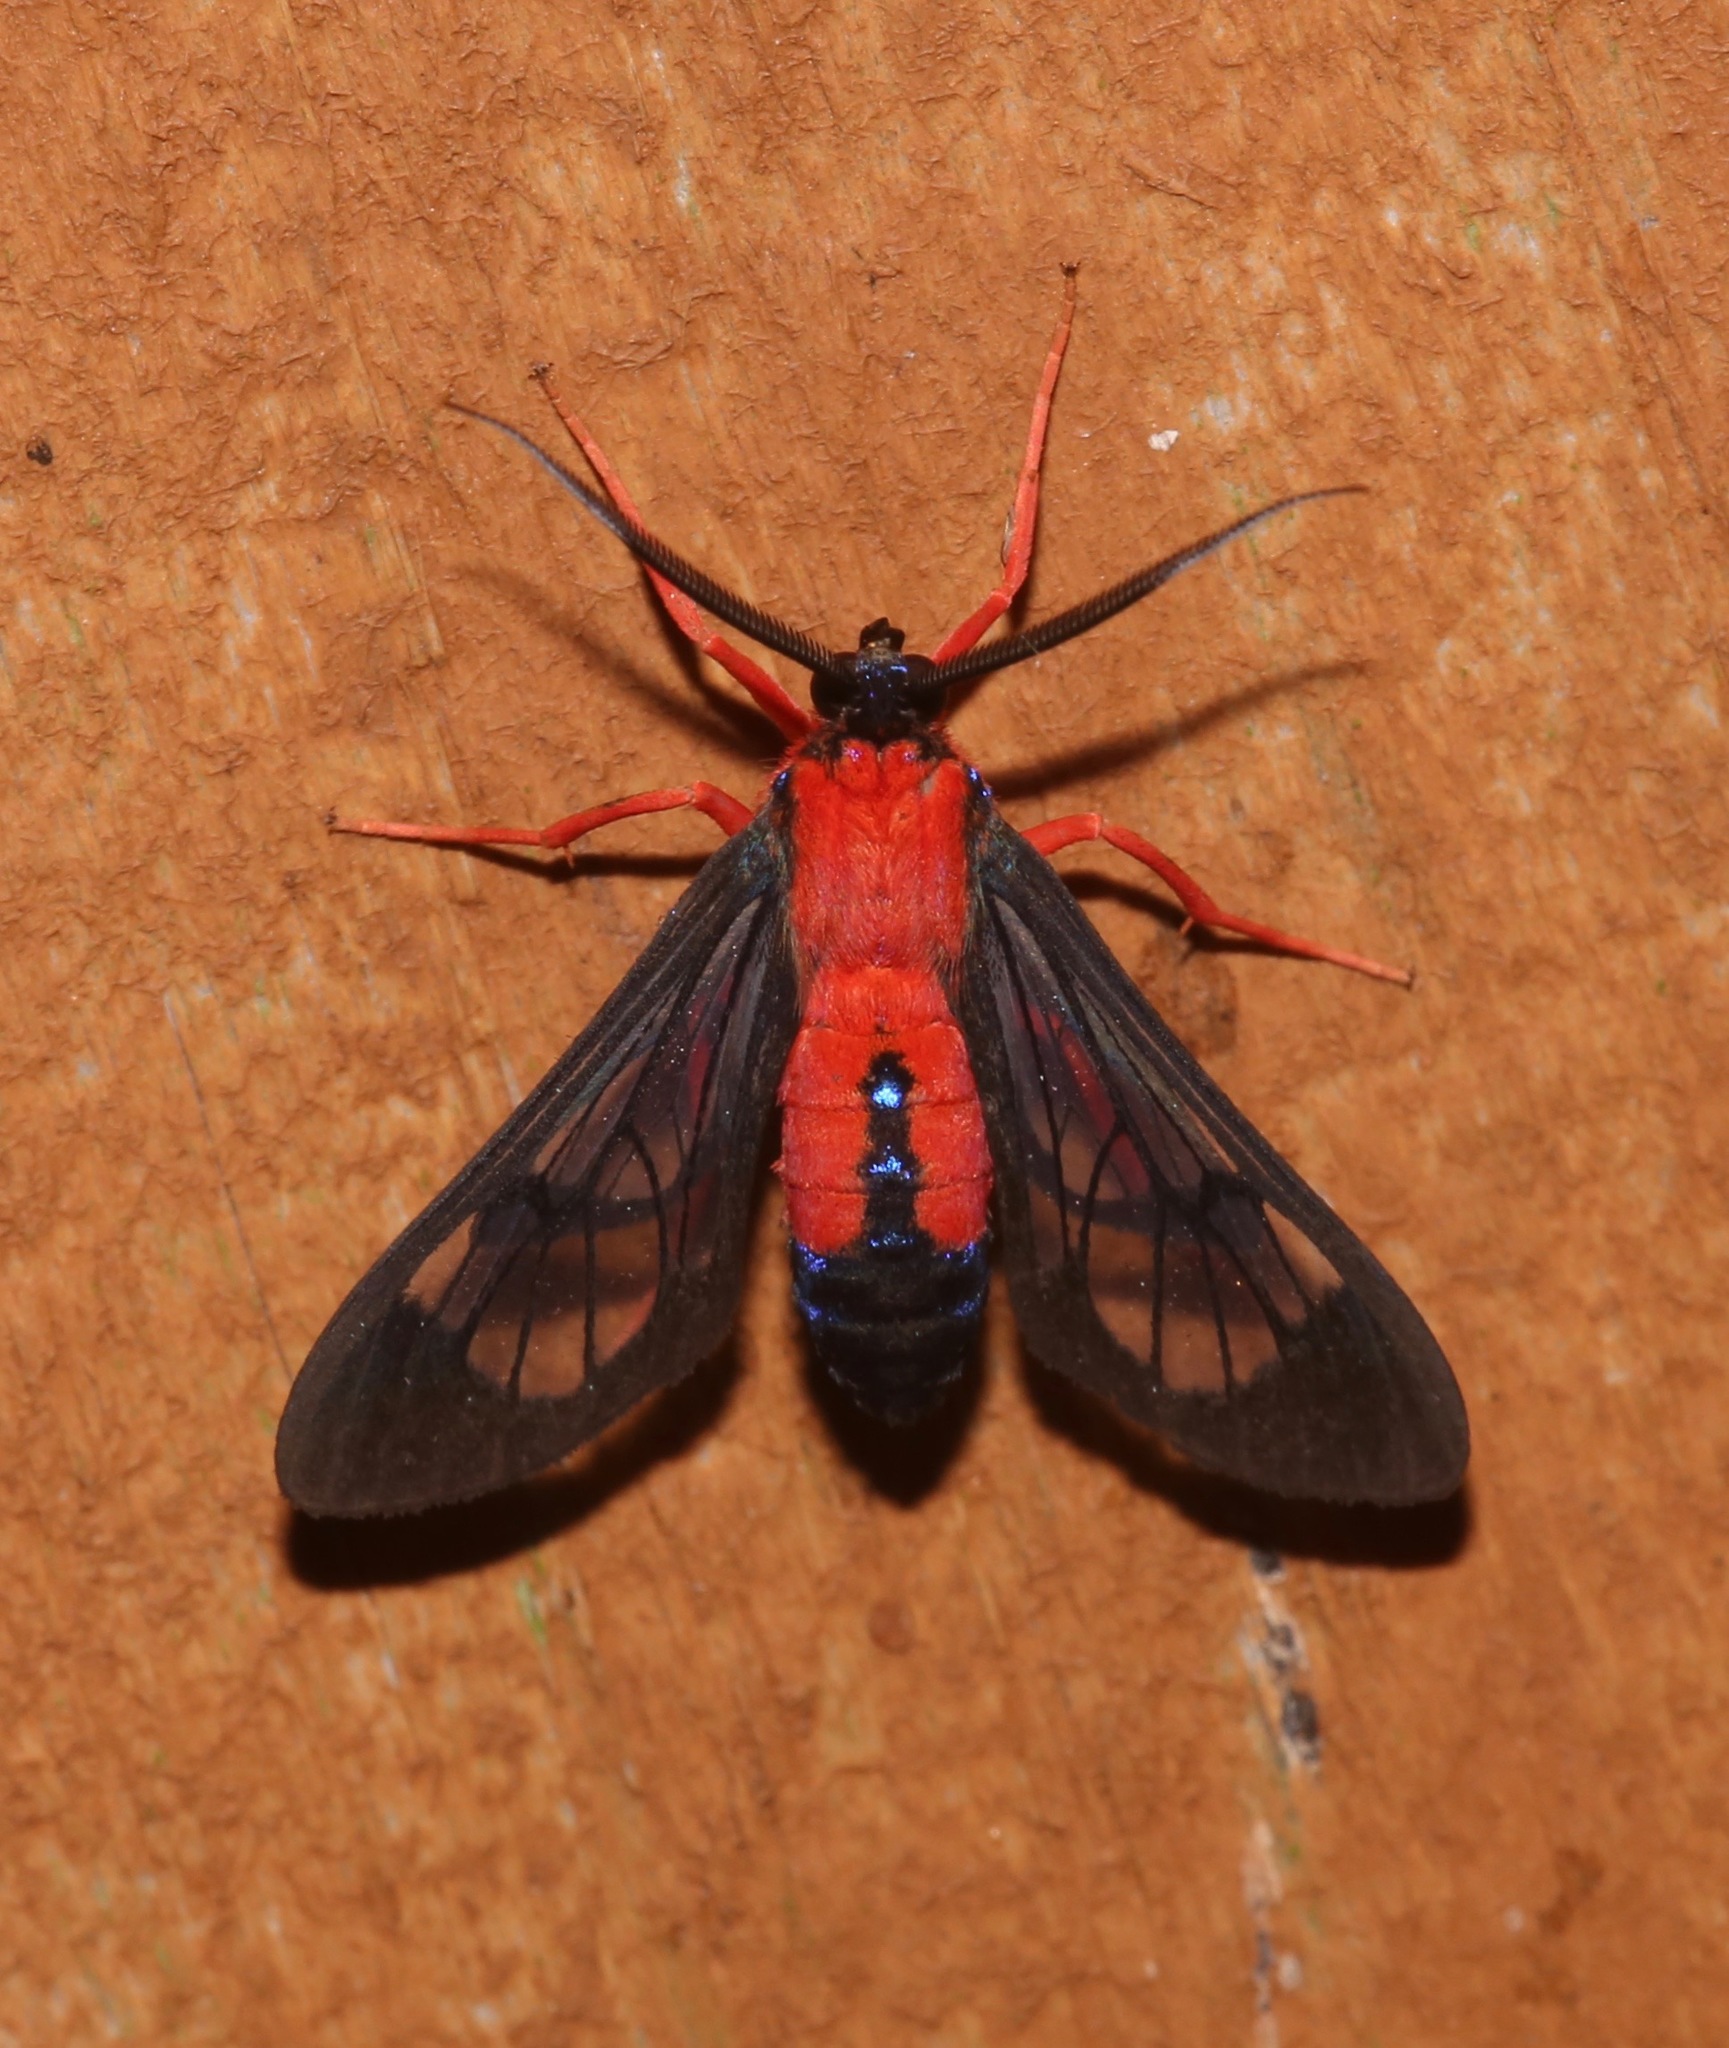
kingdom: Animalia
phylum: Arthropoda
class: Insecta
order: Lepidoptera
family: Erebidae
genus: Cosmosoma
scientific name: Cosmosoma myrodora
